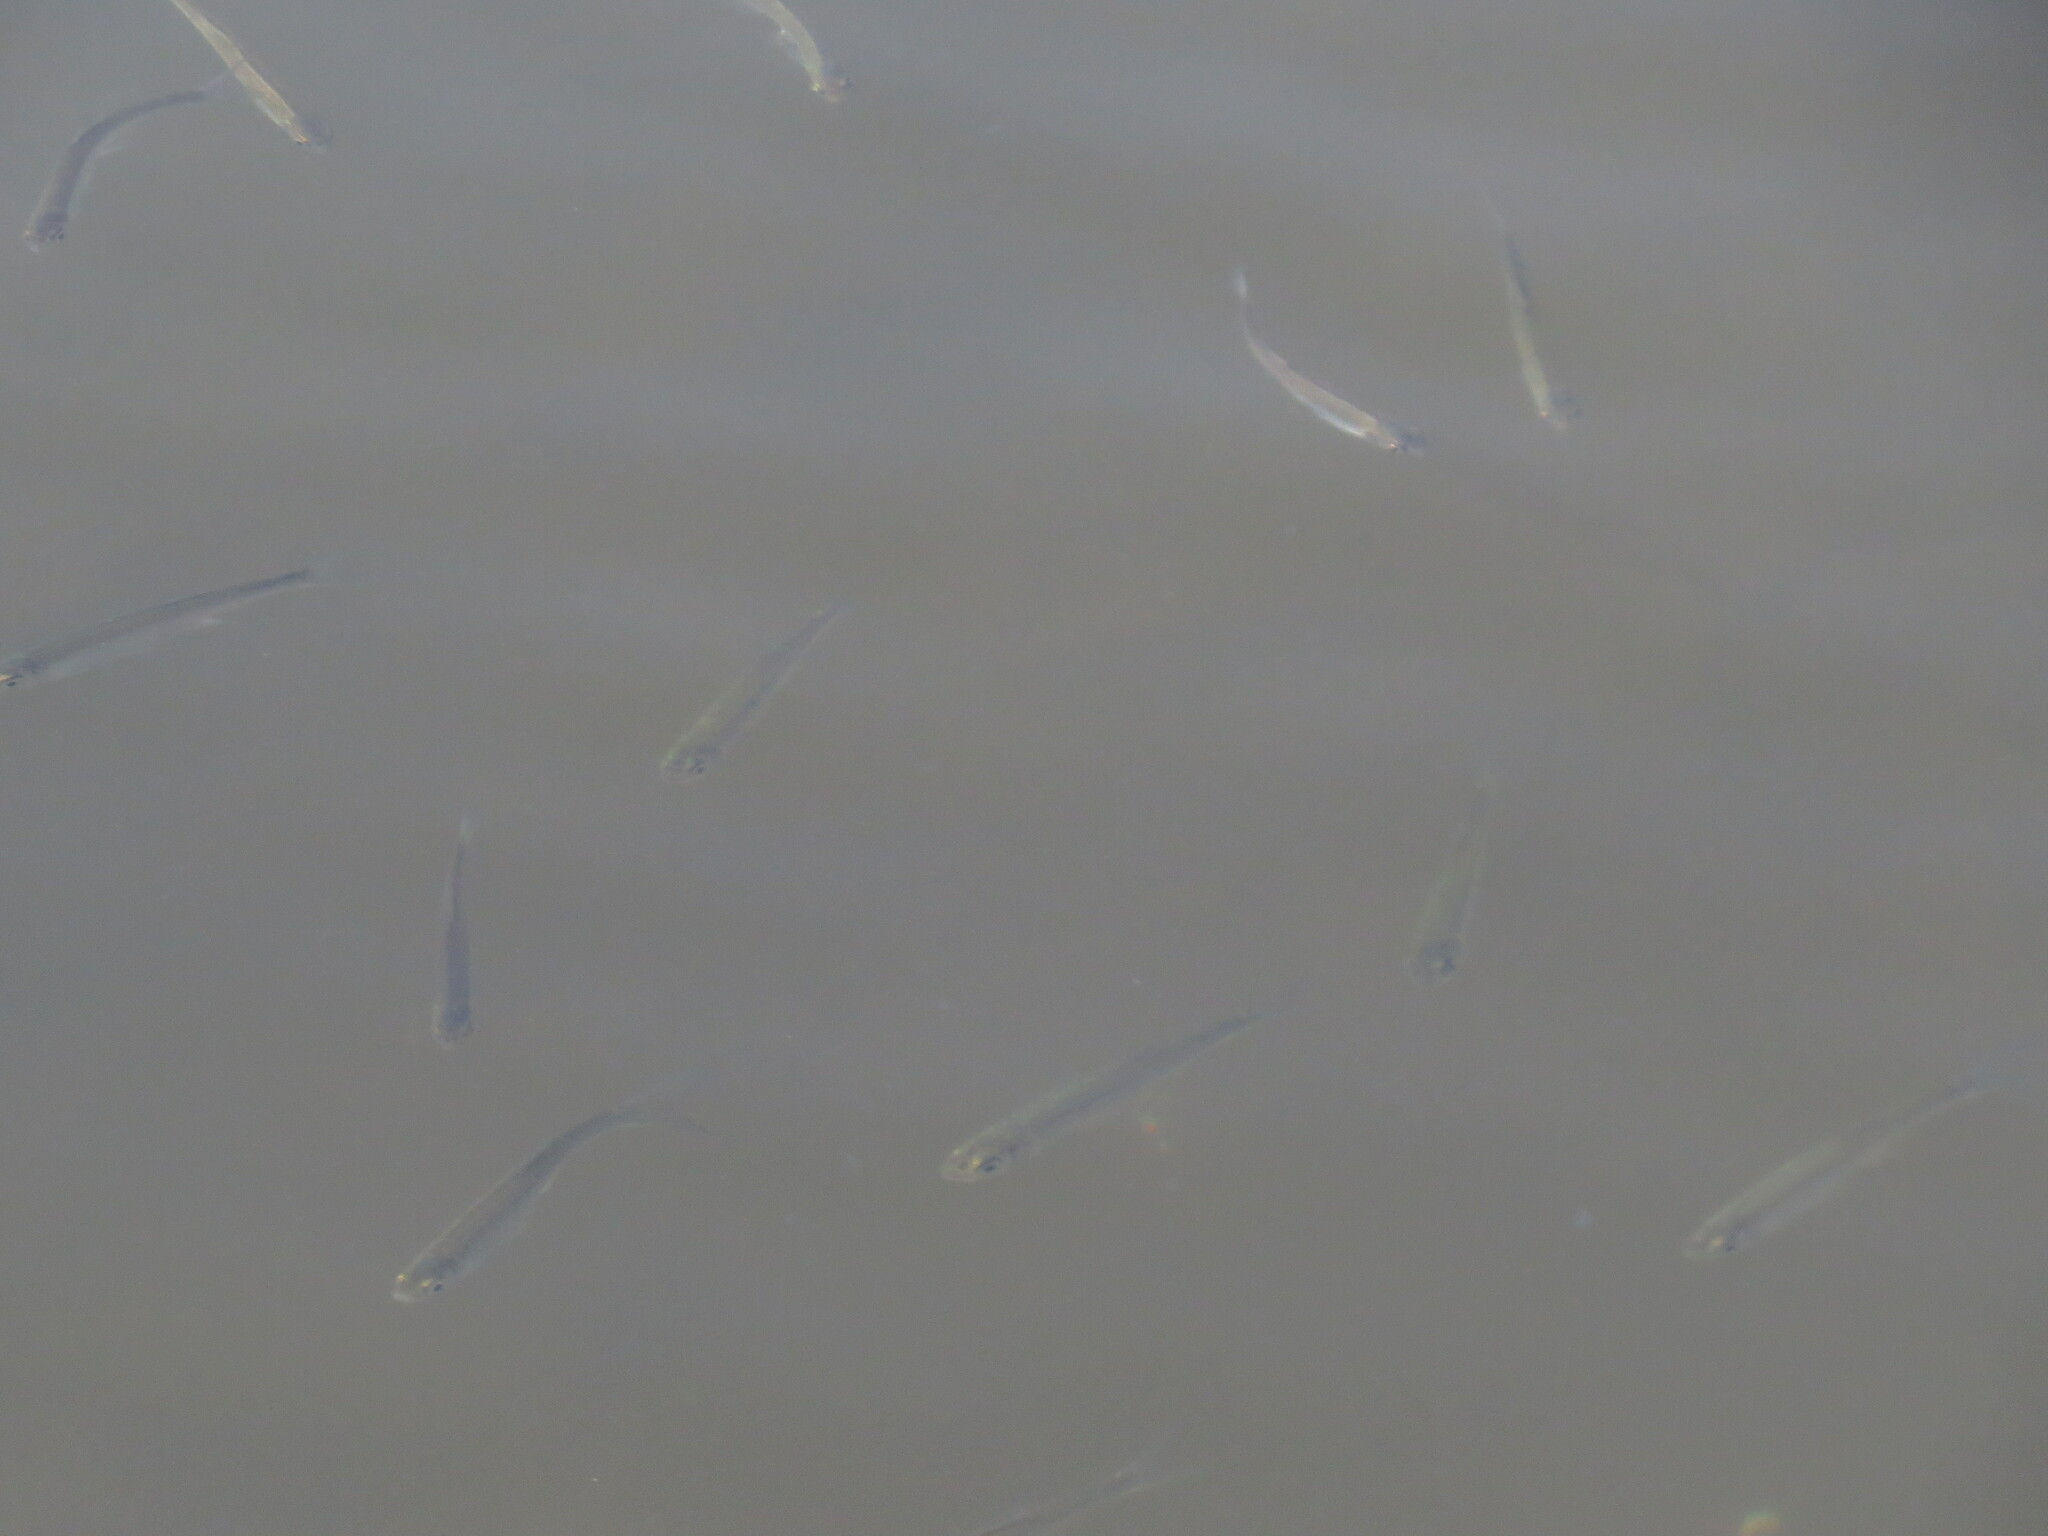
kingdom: Animalia
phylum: Chordata
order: Cypriniformes
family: Cyprinidae
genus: Alburnus
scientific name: Alburnus alburnus
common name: Bleak
